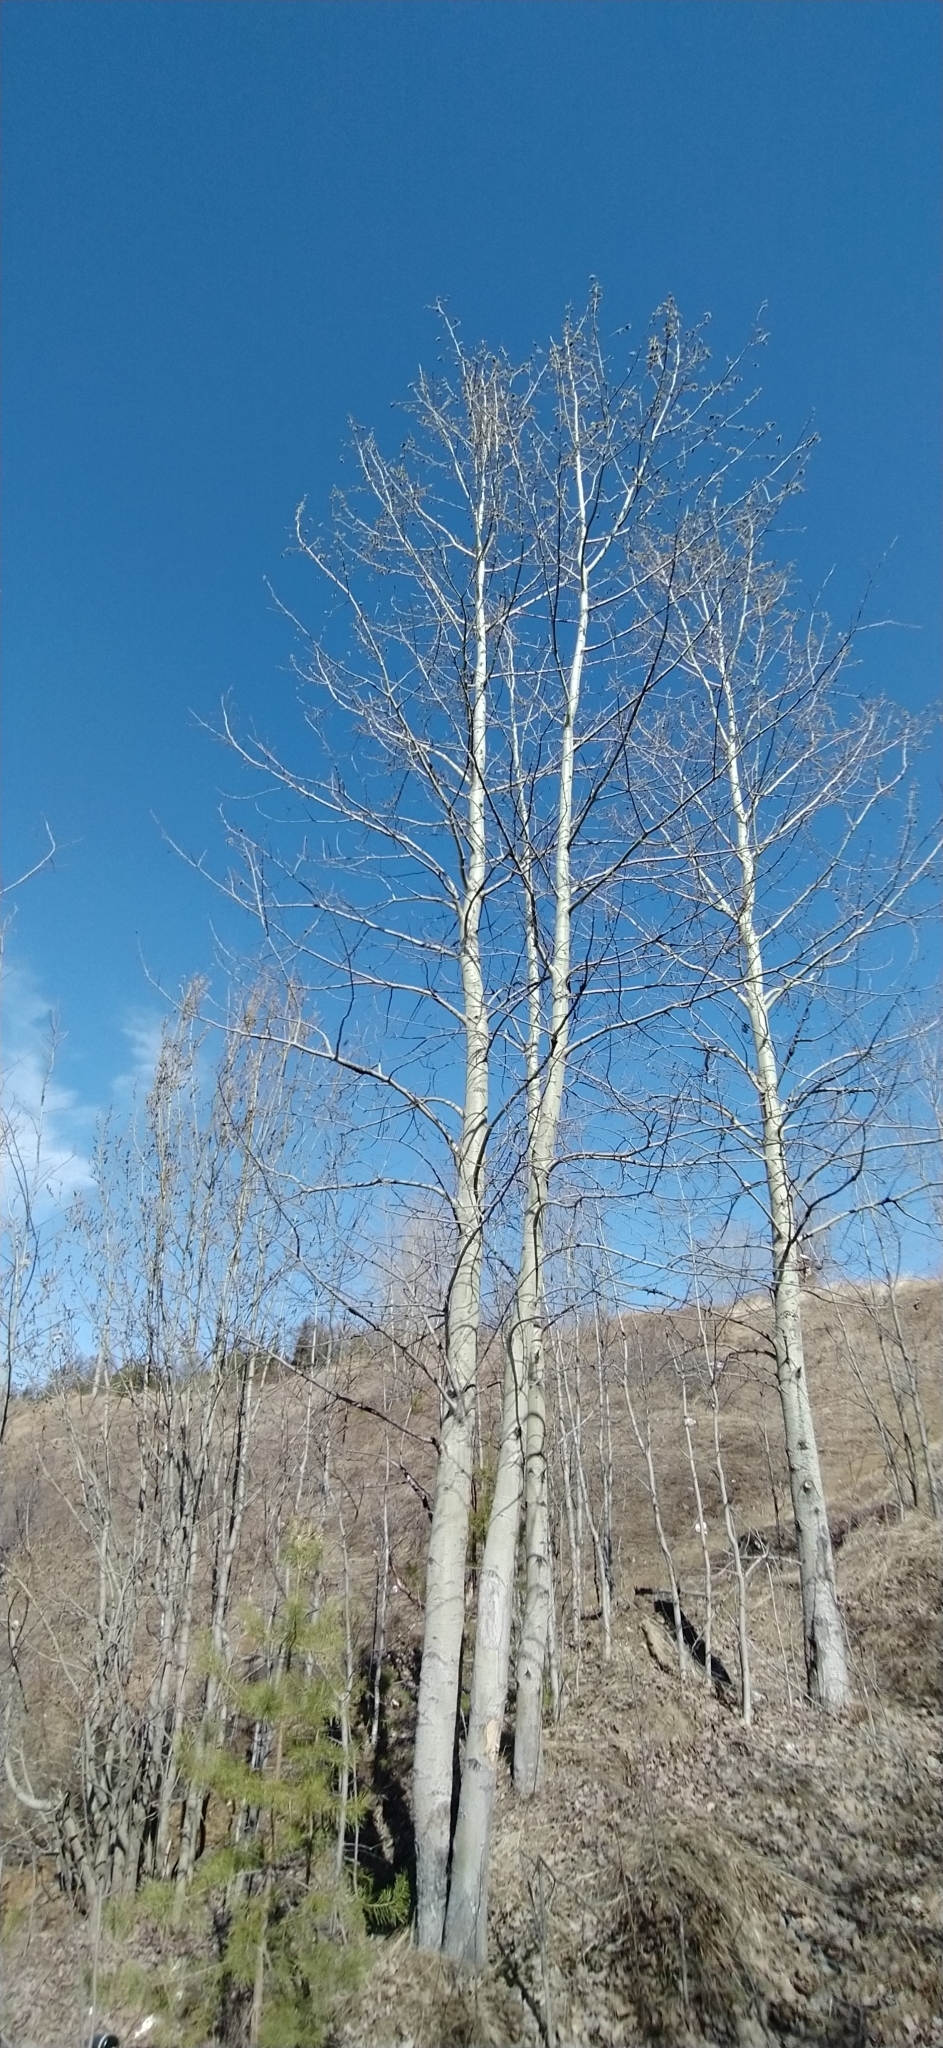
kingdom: Plantae
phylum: Tracheophyta
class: Magnoliopsida
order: Malpighiales
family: Salicaceae
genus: Populus
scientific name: Populus tremula
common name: European aspen
